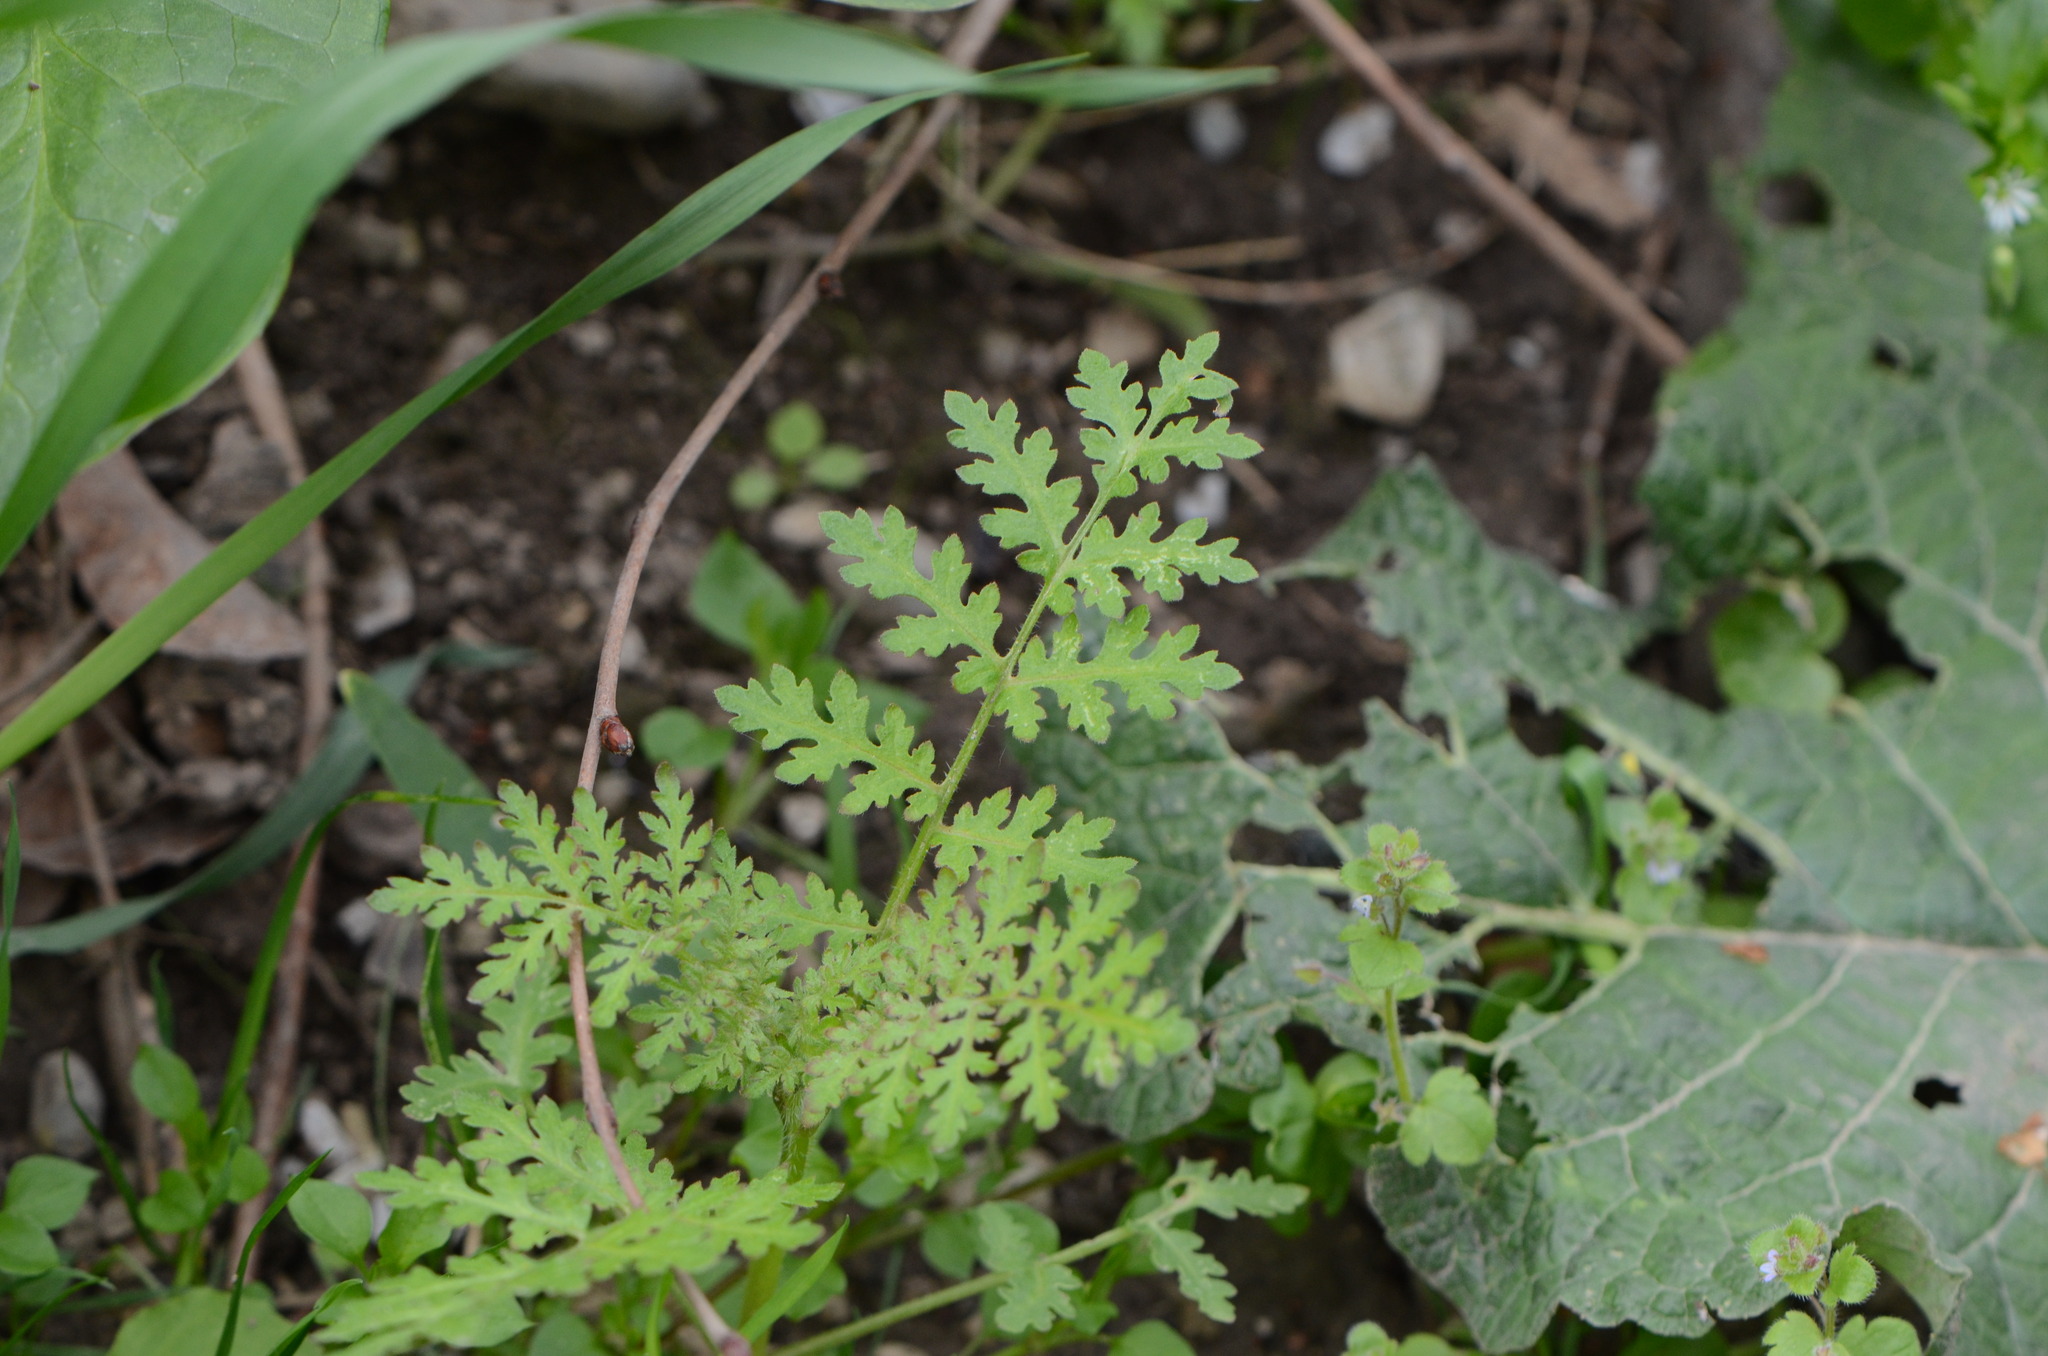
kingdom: Plantae
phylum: Tracheophyta
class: Magnoliopsida
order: Boraginales
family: Hydrophyllaceae
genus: Phacelia
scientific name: Phacelia tanacetifolia
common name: Phacelia
